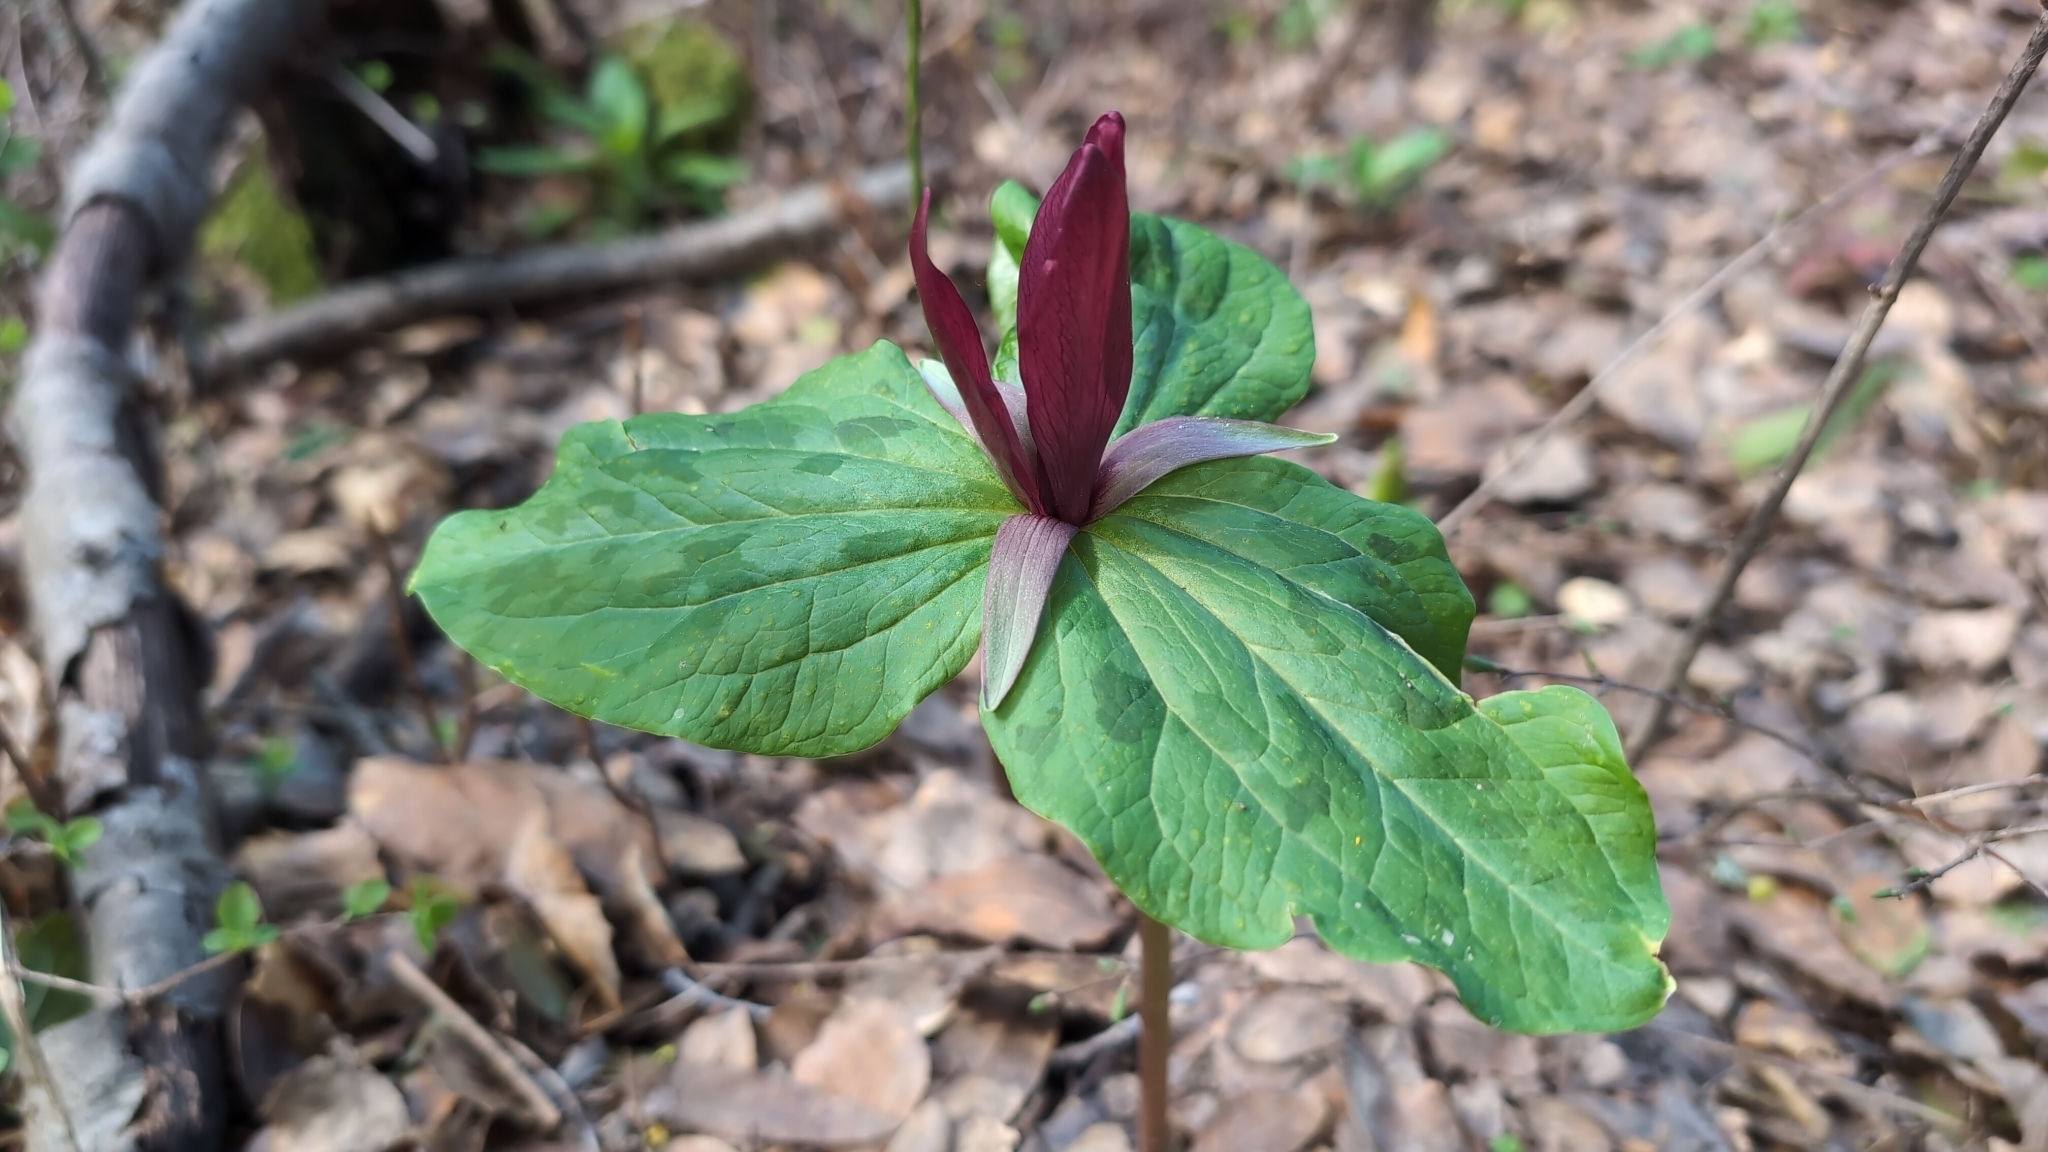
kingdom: Plantae
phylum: Tracheophyta
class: Liliopsida
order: Liliales
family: Melanthiaceae
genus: Trillium
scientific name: Trillium chloropetalum
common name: Giant trillium
